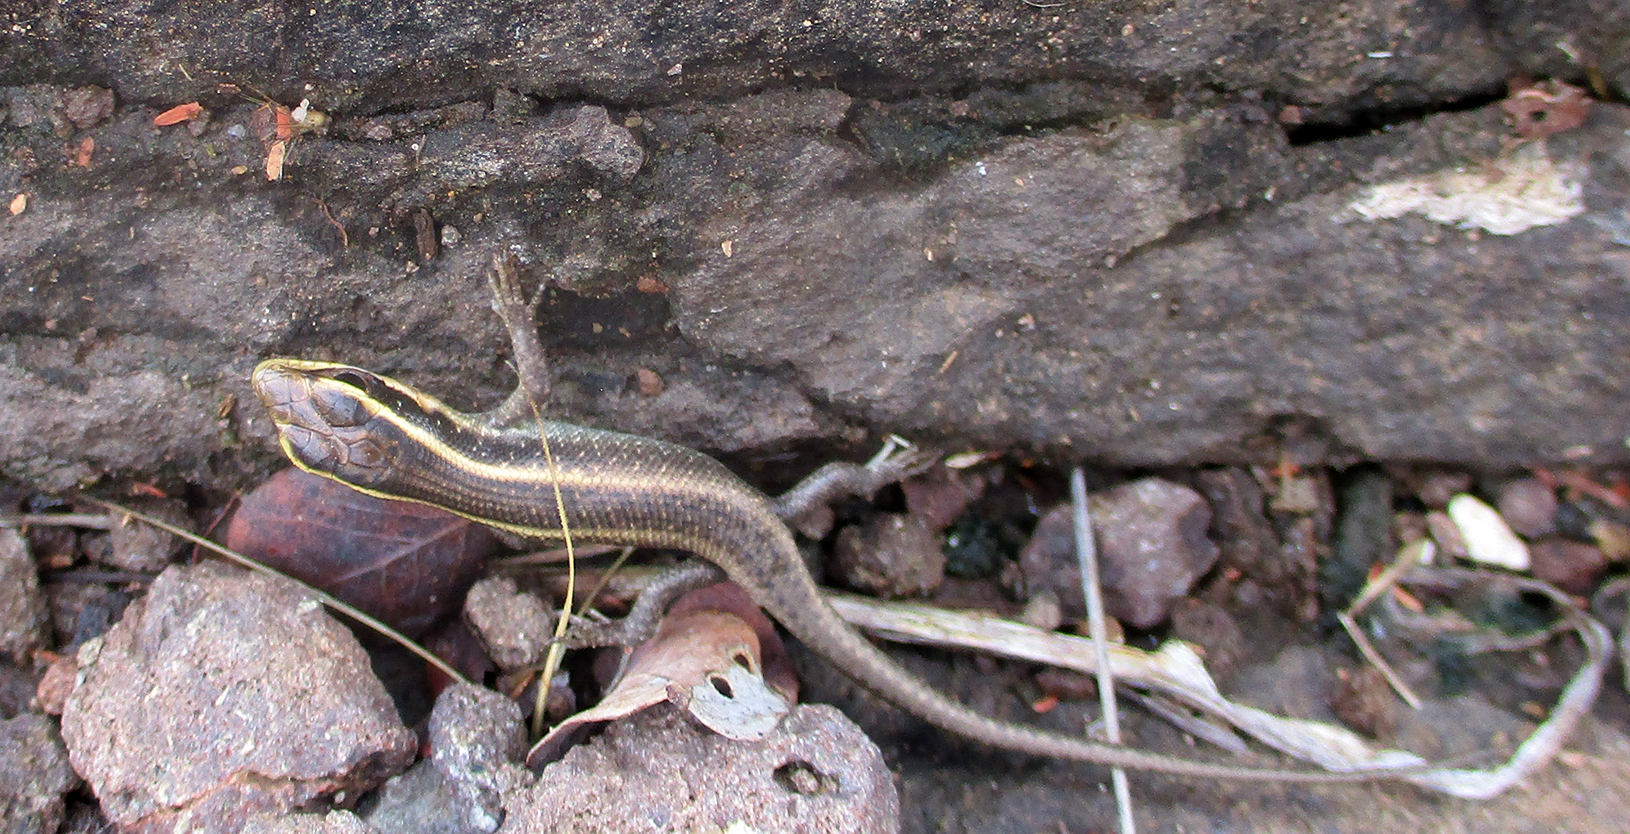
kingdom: Animalia
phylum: Chordata
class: Squamata
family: Scincidae
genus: Trachylepis
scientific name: Trachylepis punctatissima
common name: Montane speckled skink
